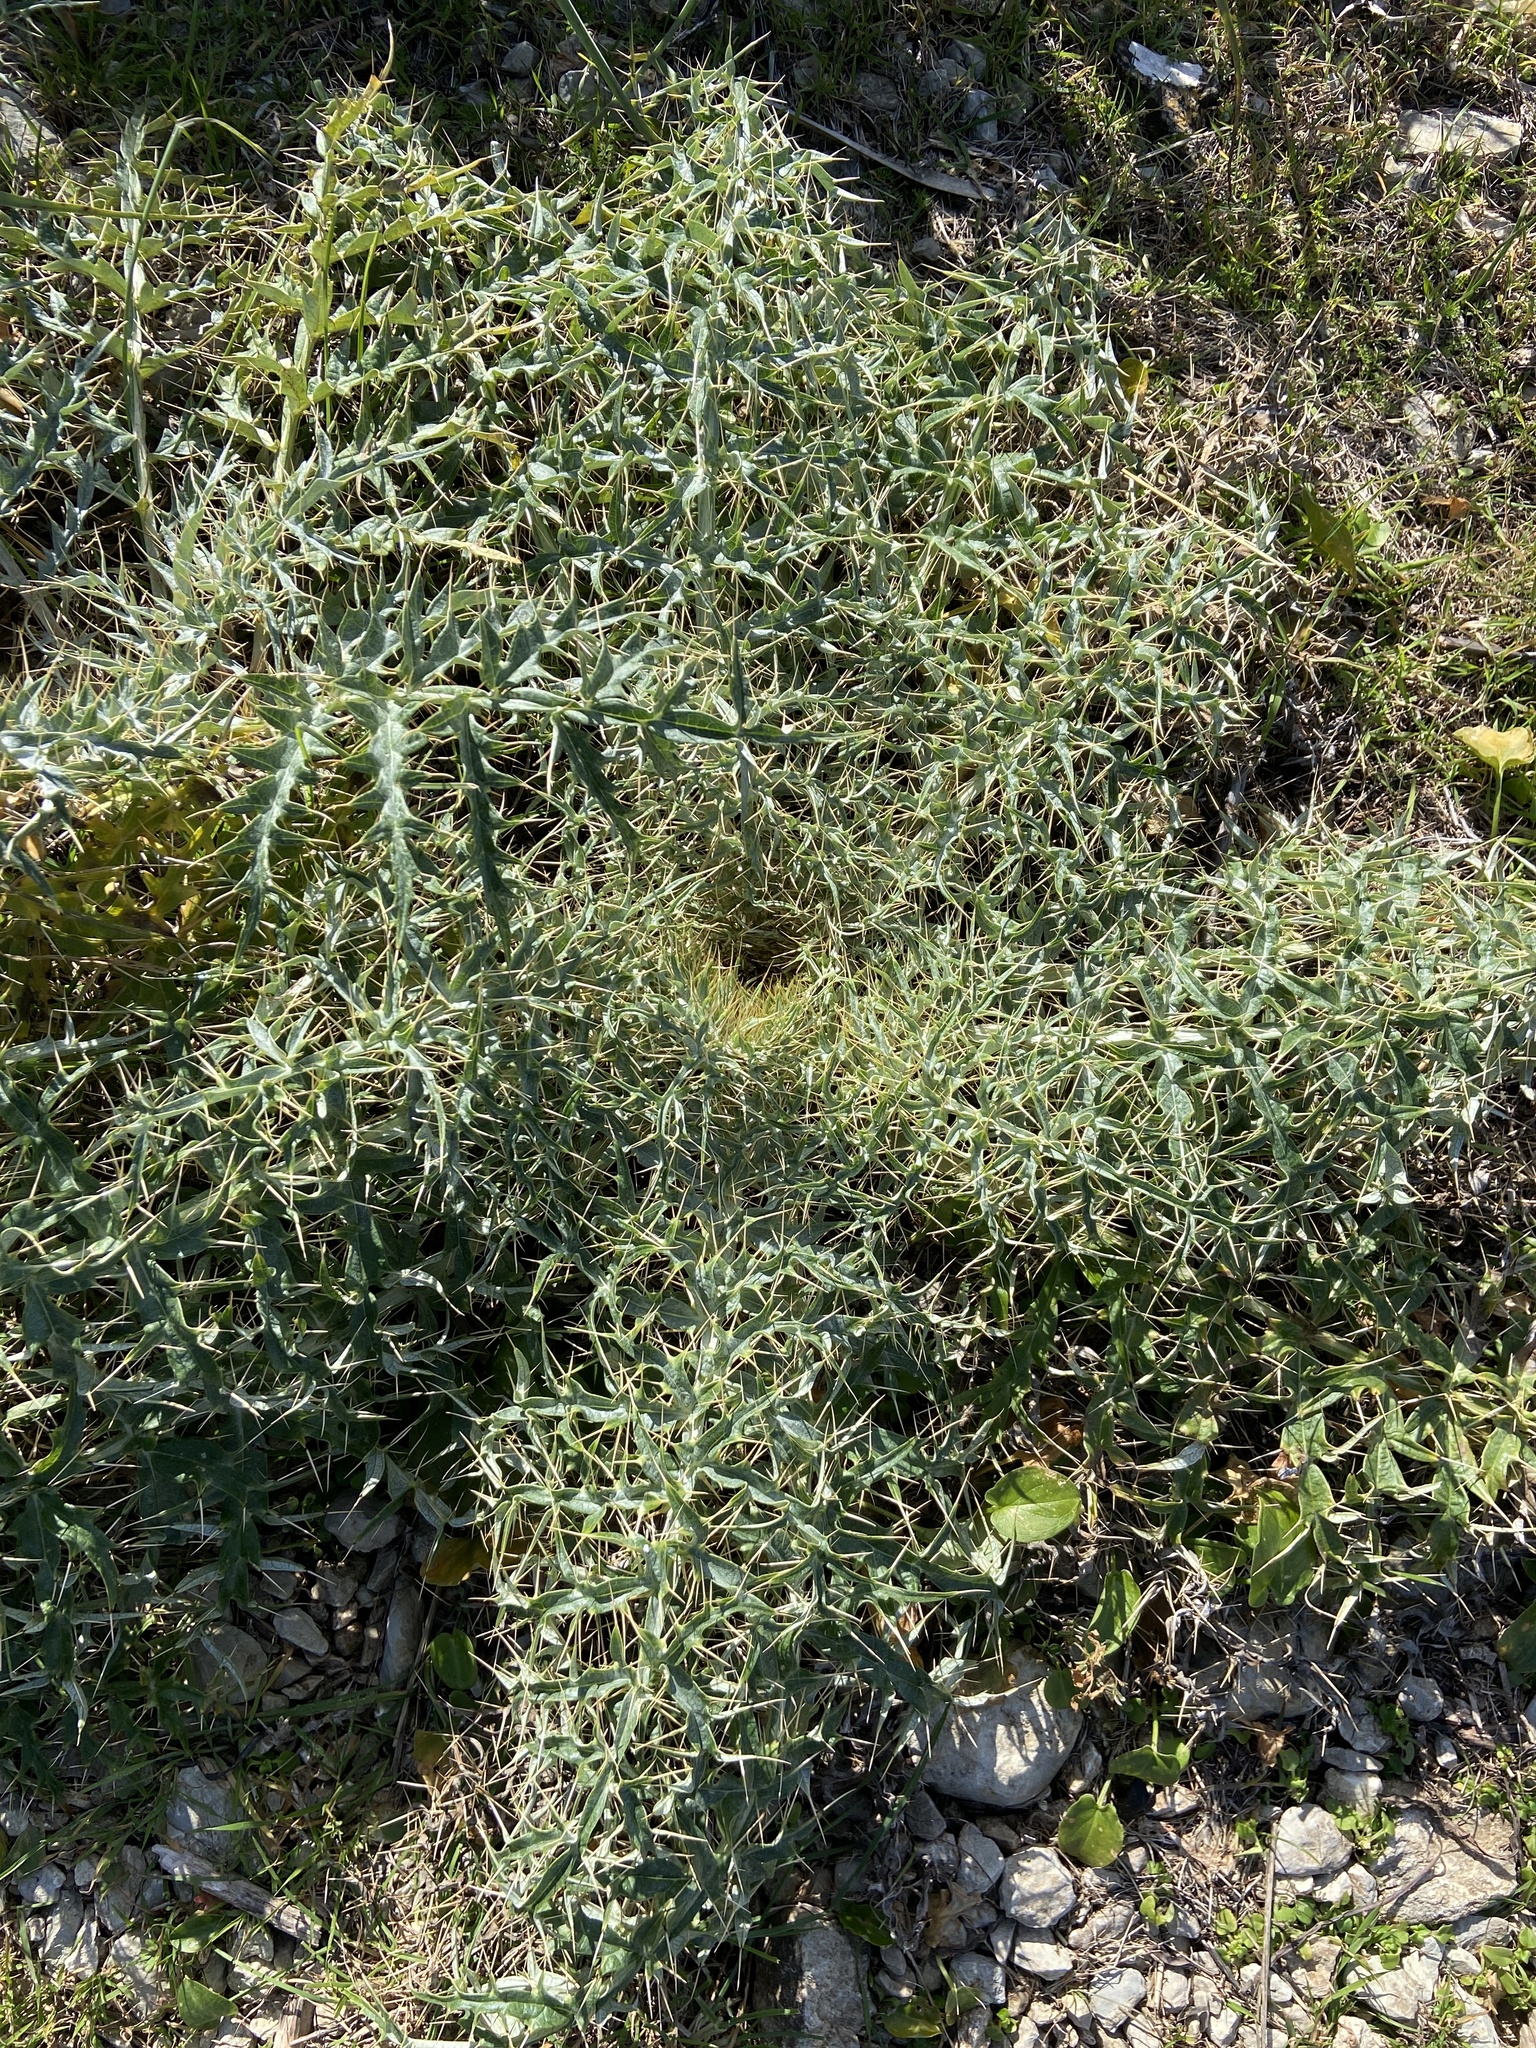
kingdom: Plantae
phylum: Tracheophyta
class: Magnoliopsida
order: Asterales
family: Asteraceae
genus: Cynara
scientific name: Cynara cardunculus
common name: Globe artichoke
